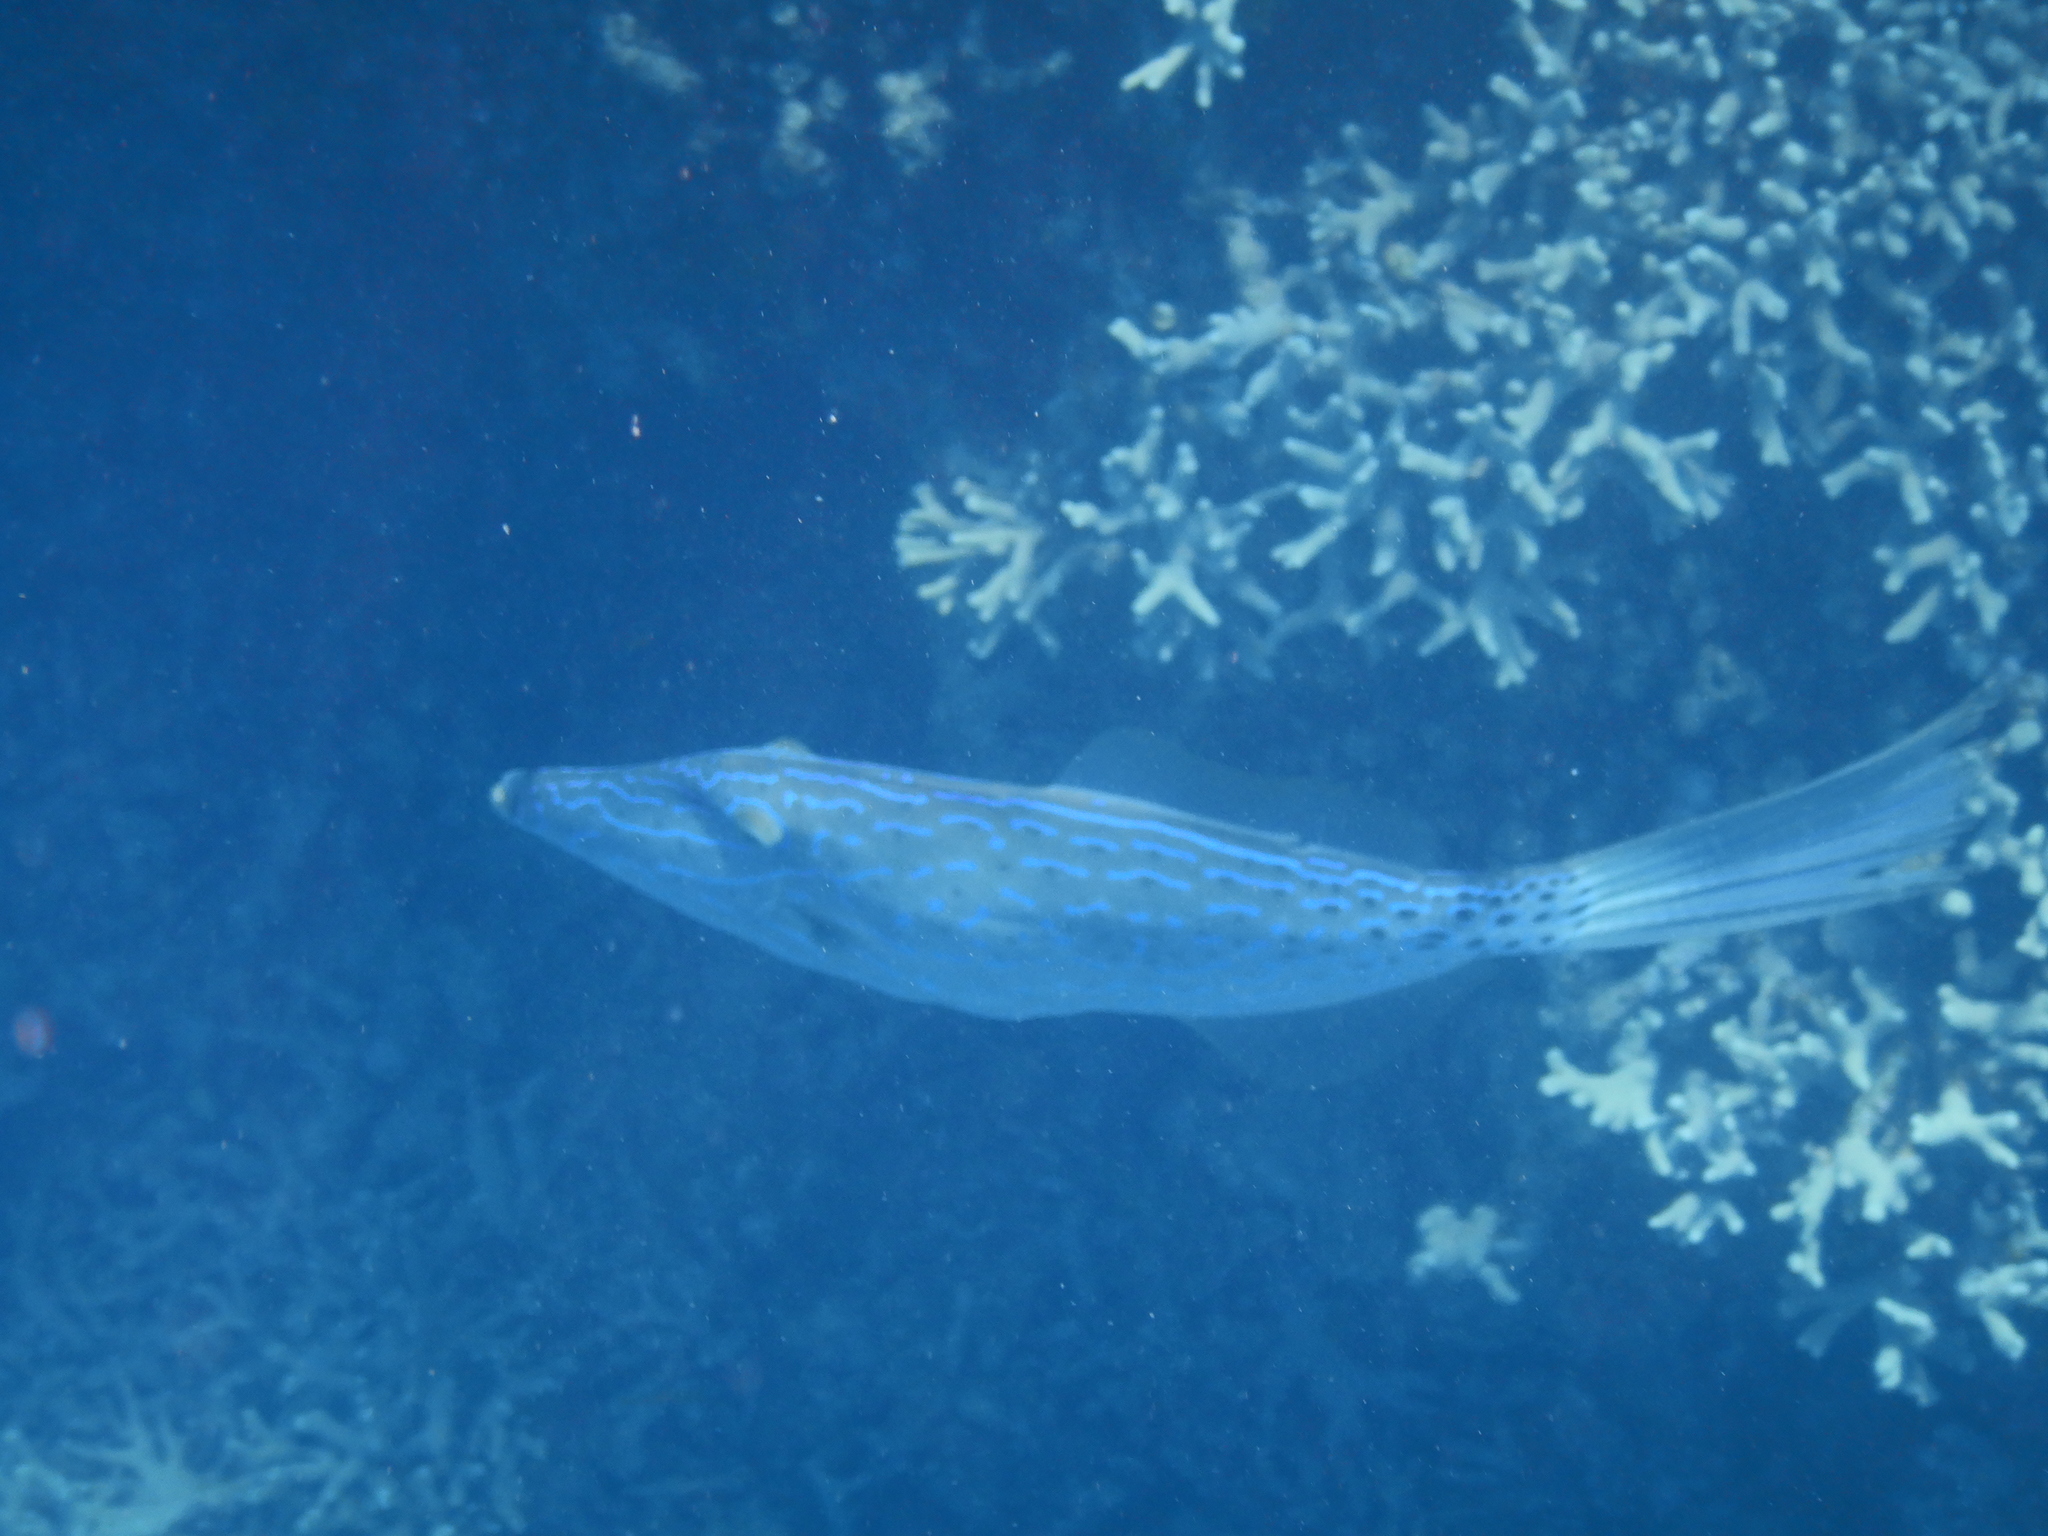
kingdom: Animalia
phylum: Chordata
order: Tetraodontiformes
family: Monacanthidae
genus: Aluterus
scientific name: Aluterus scriptus
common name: Scribbled leatherjacket filefish
